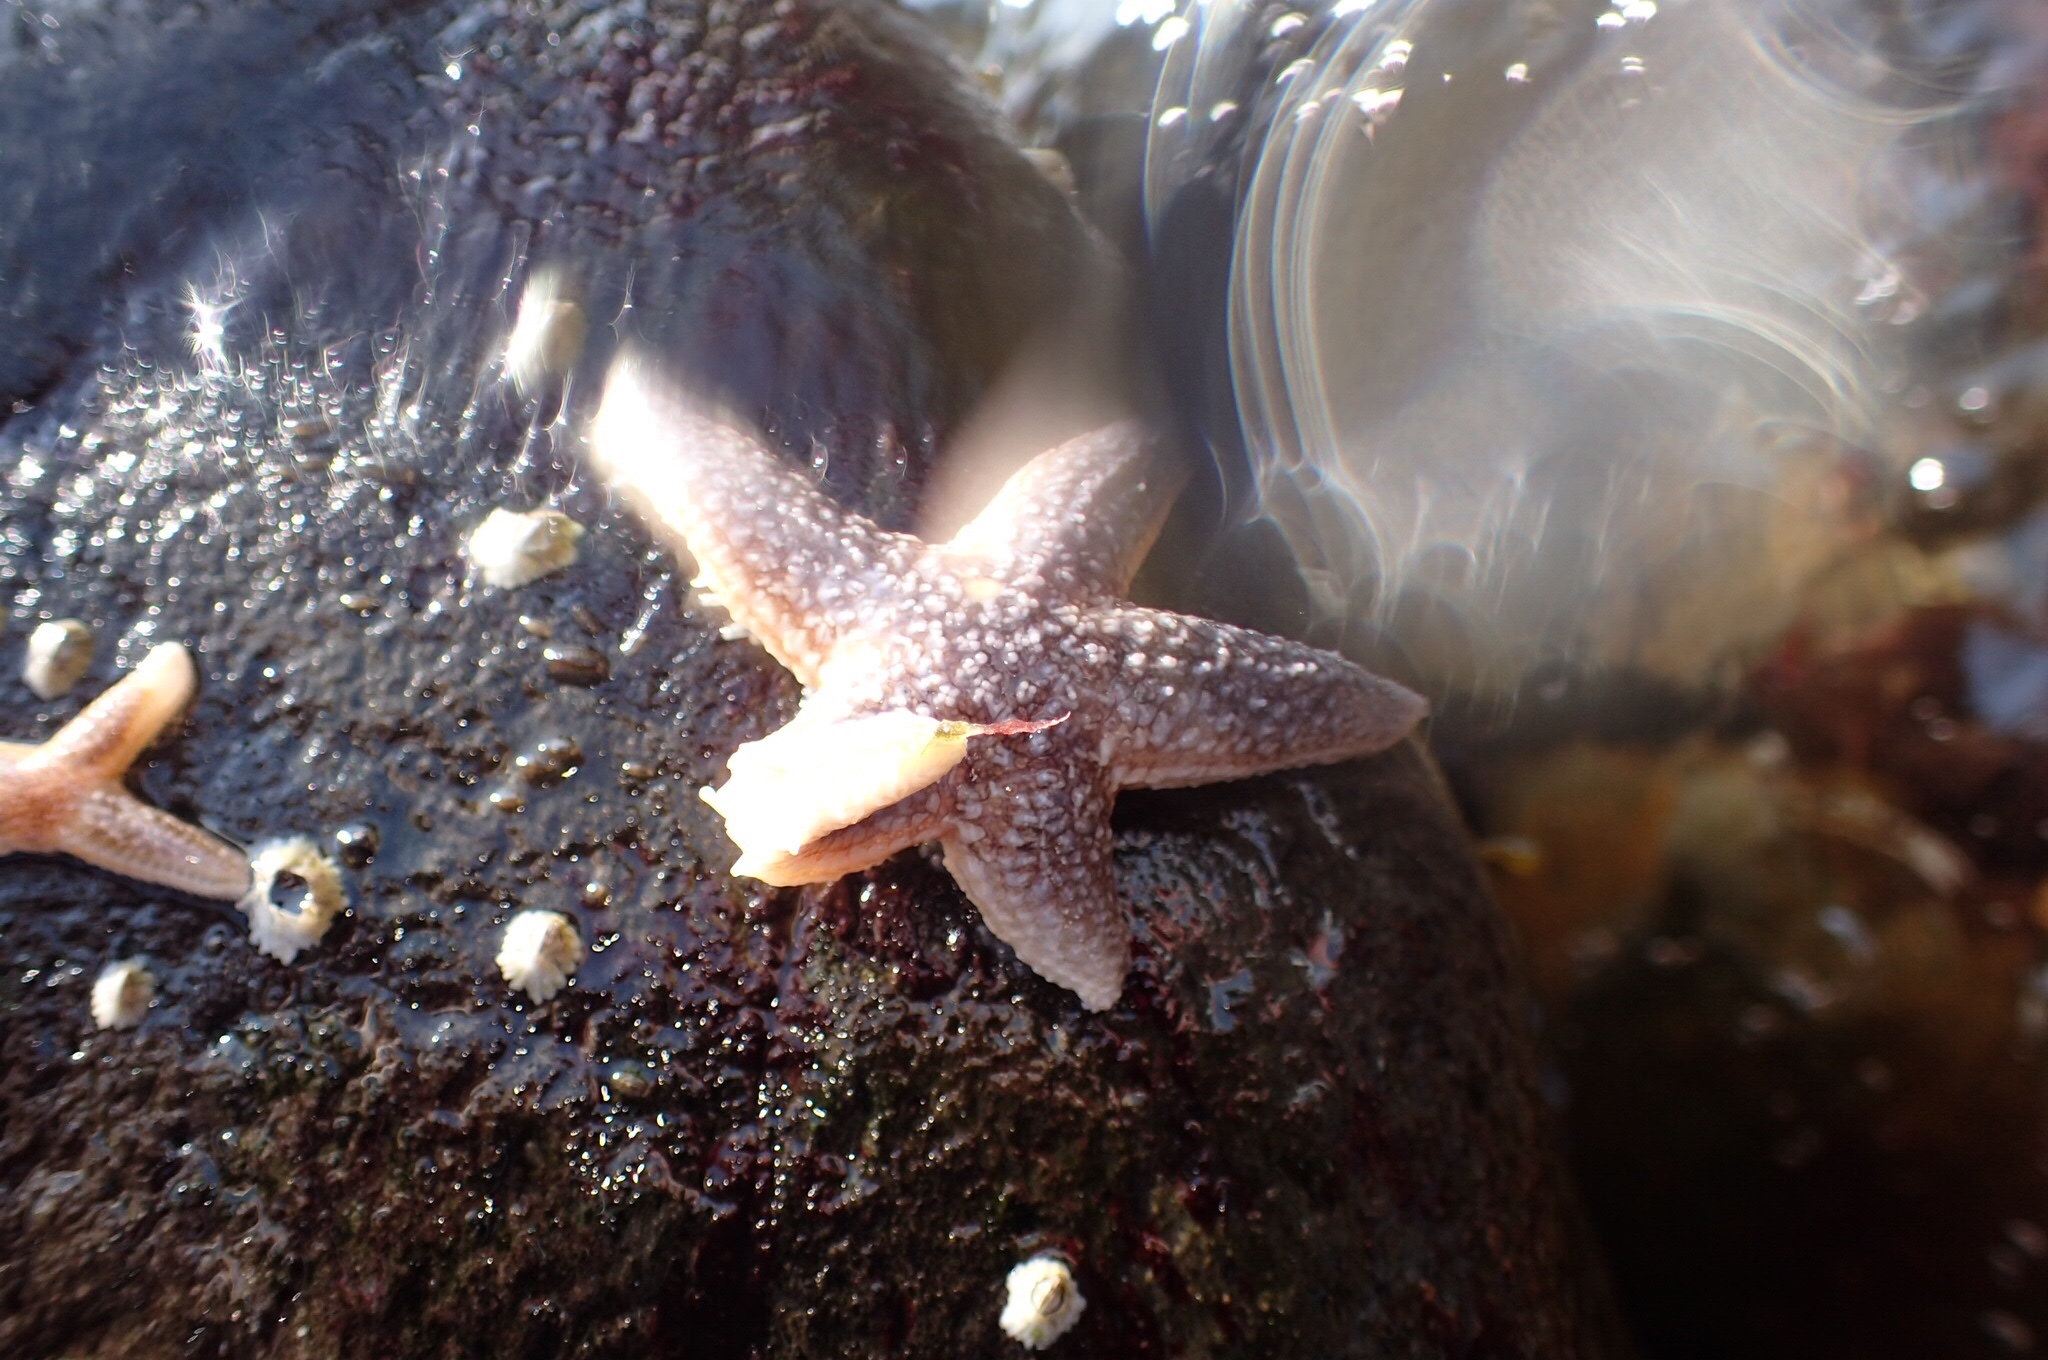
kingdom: Animalia
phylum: Echinodermata
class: Asteroidea
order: Forcipulatida
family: Asteriidae
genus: Asterias
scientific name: Asterias rubens
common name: Common starfish
